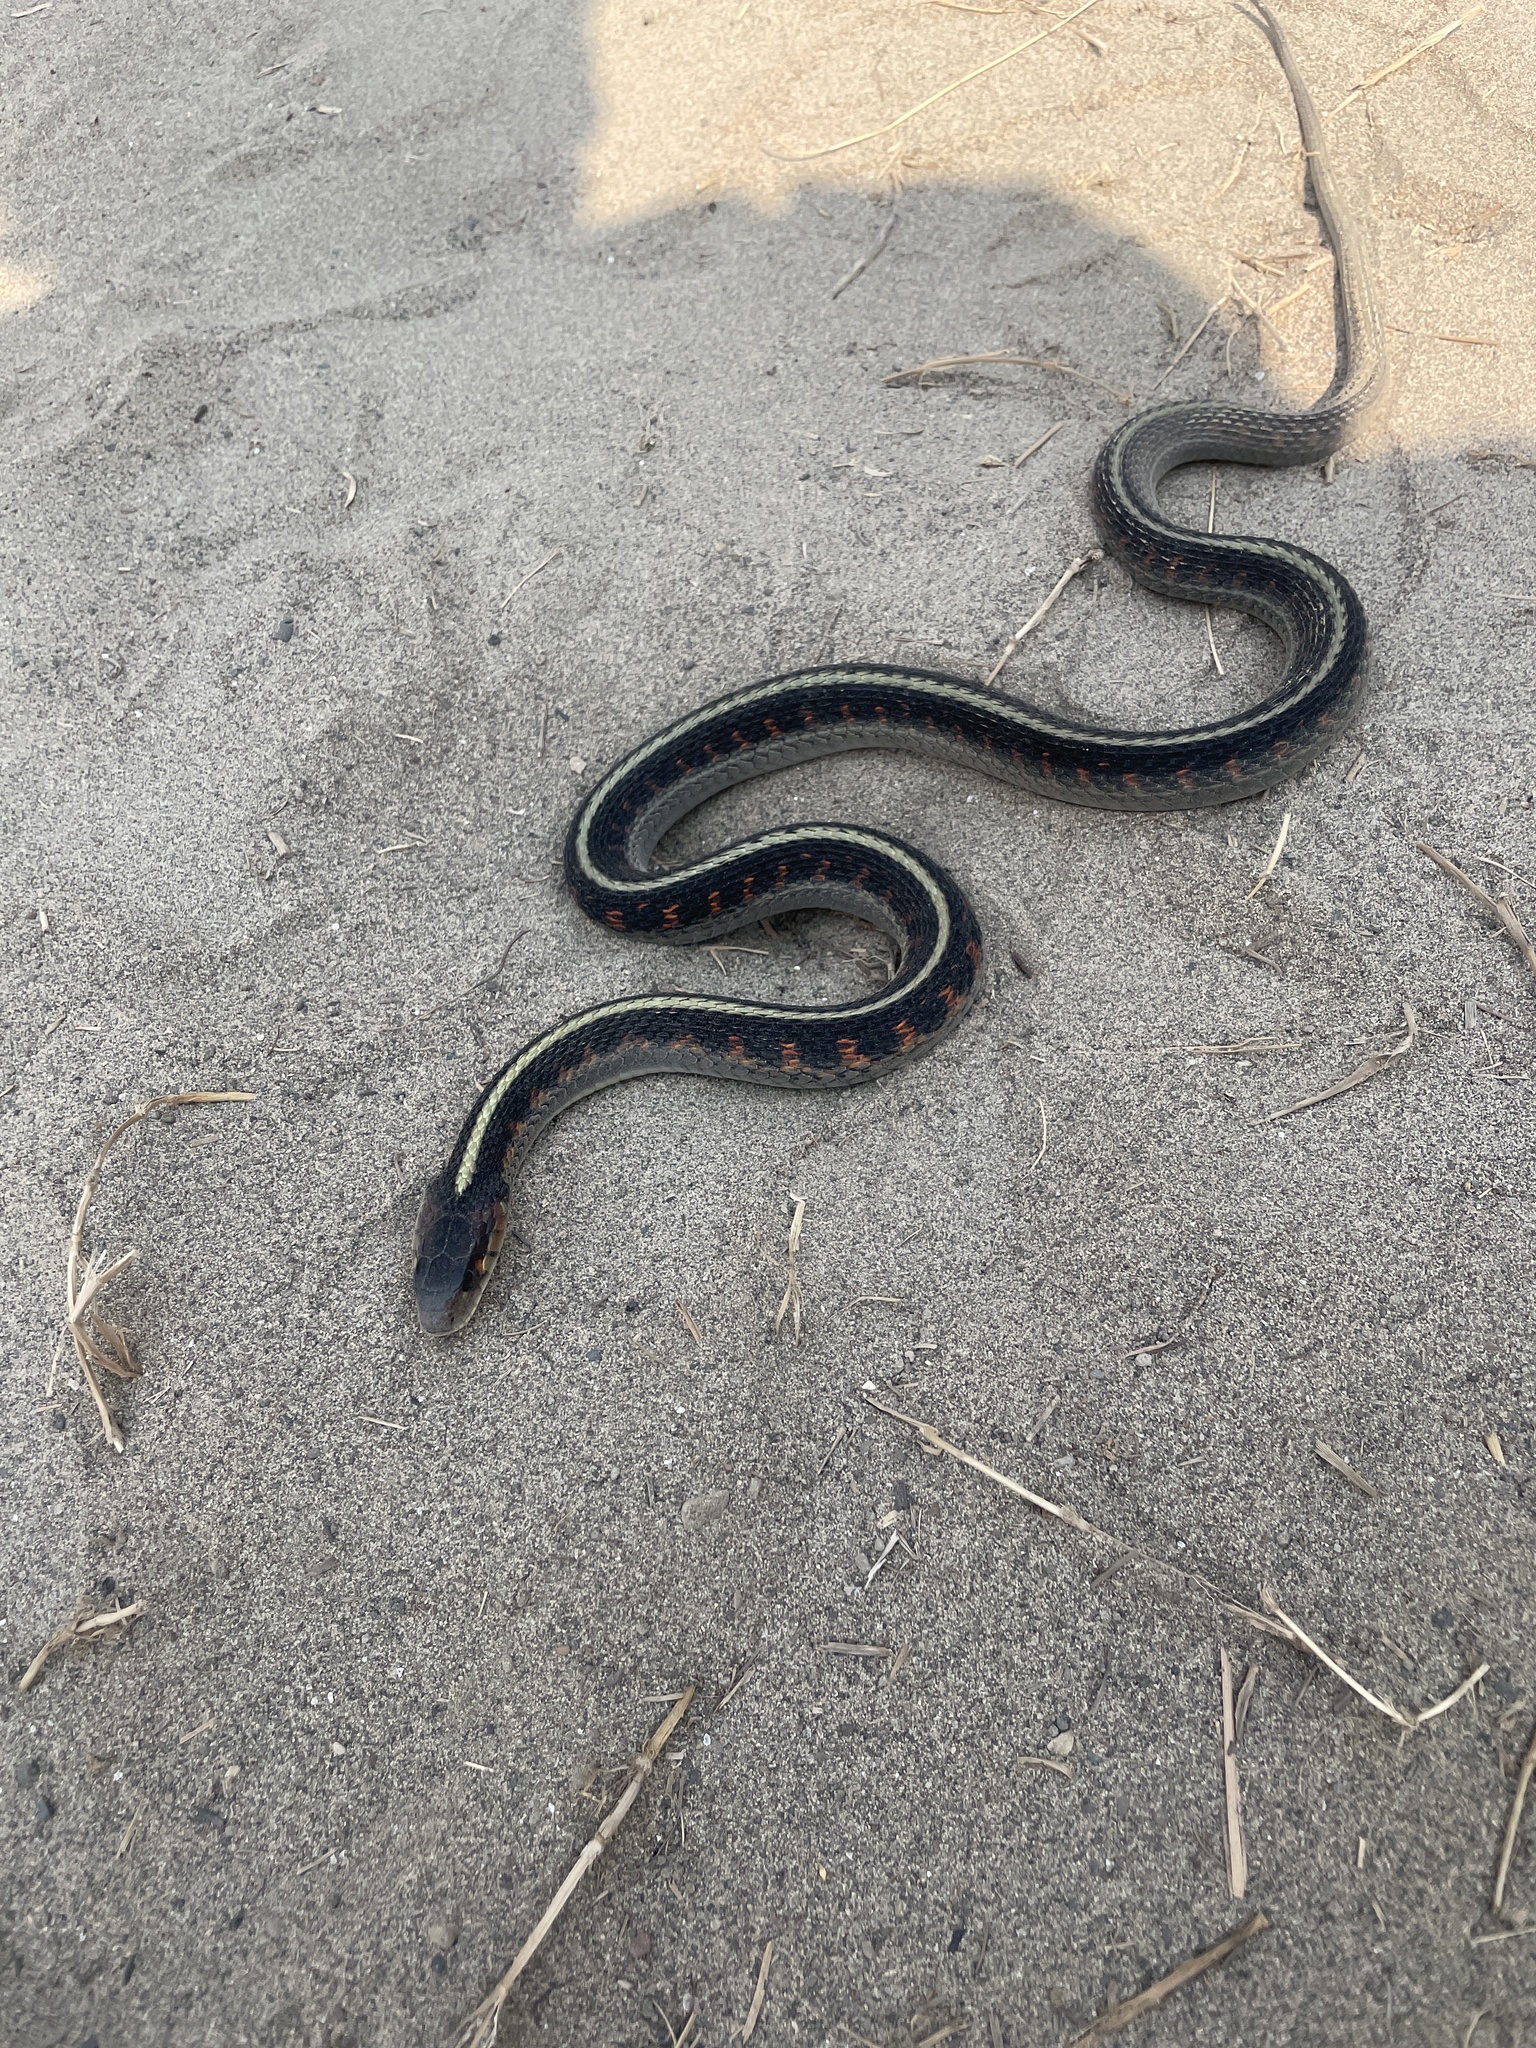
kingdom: Animalia
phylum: Chordata
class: Squamata
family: Colubridae
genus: Thamnophis
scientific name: Thamnophis sirtalis
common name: Common garter snake
